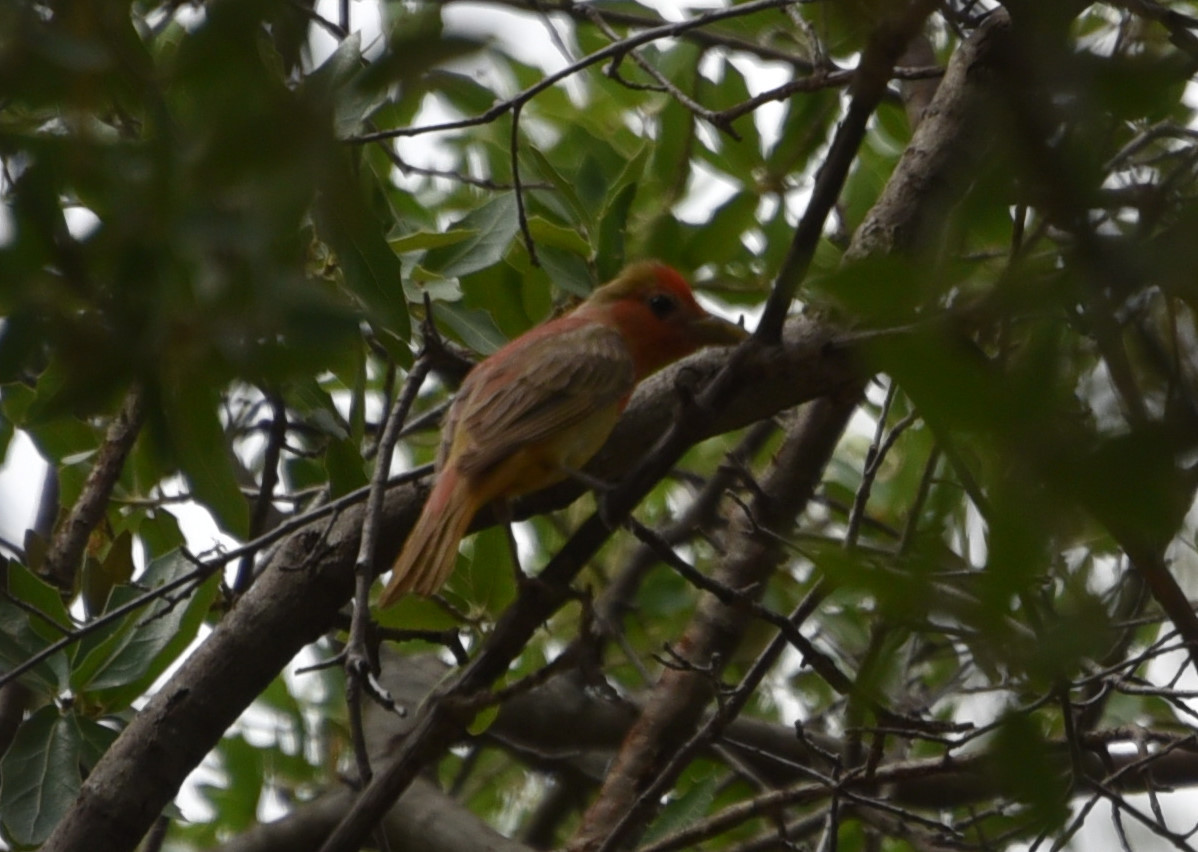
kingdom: Animalia
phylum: Chordata
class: Aves
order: Passeriformes
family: Cardinalidae
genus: Piranga
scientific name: Piranga rubra
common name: Summer tanager
